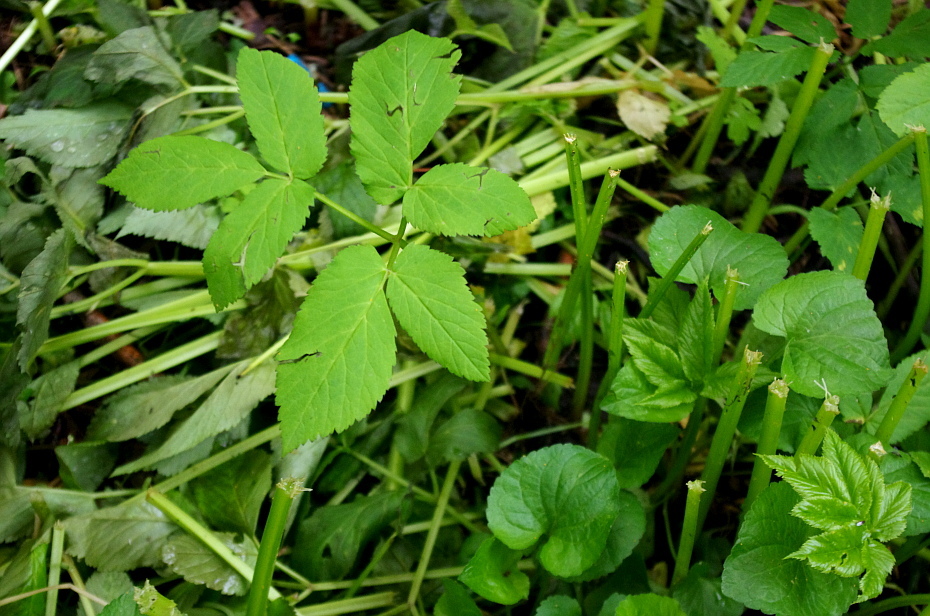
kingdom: Plantae
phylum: Tracheophyta
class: Magnoliopsida
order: Apiales
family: Apiaceae
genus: Aegopodium
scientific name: Aegopodium podagraria
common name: Ground-elder
